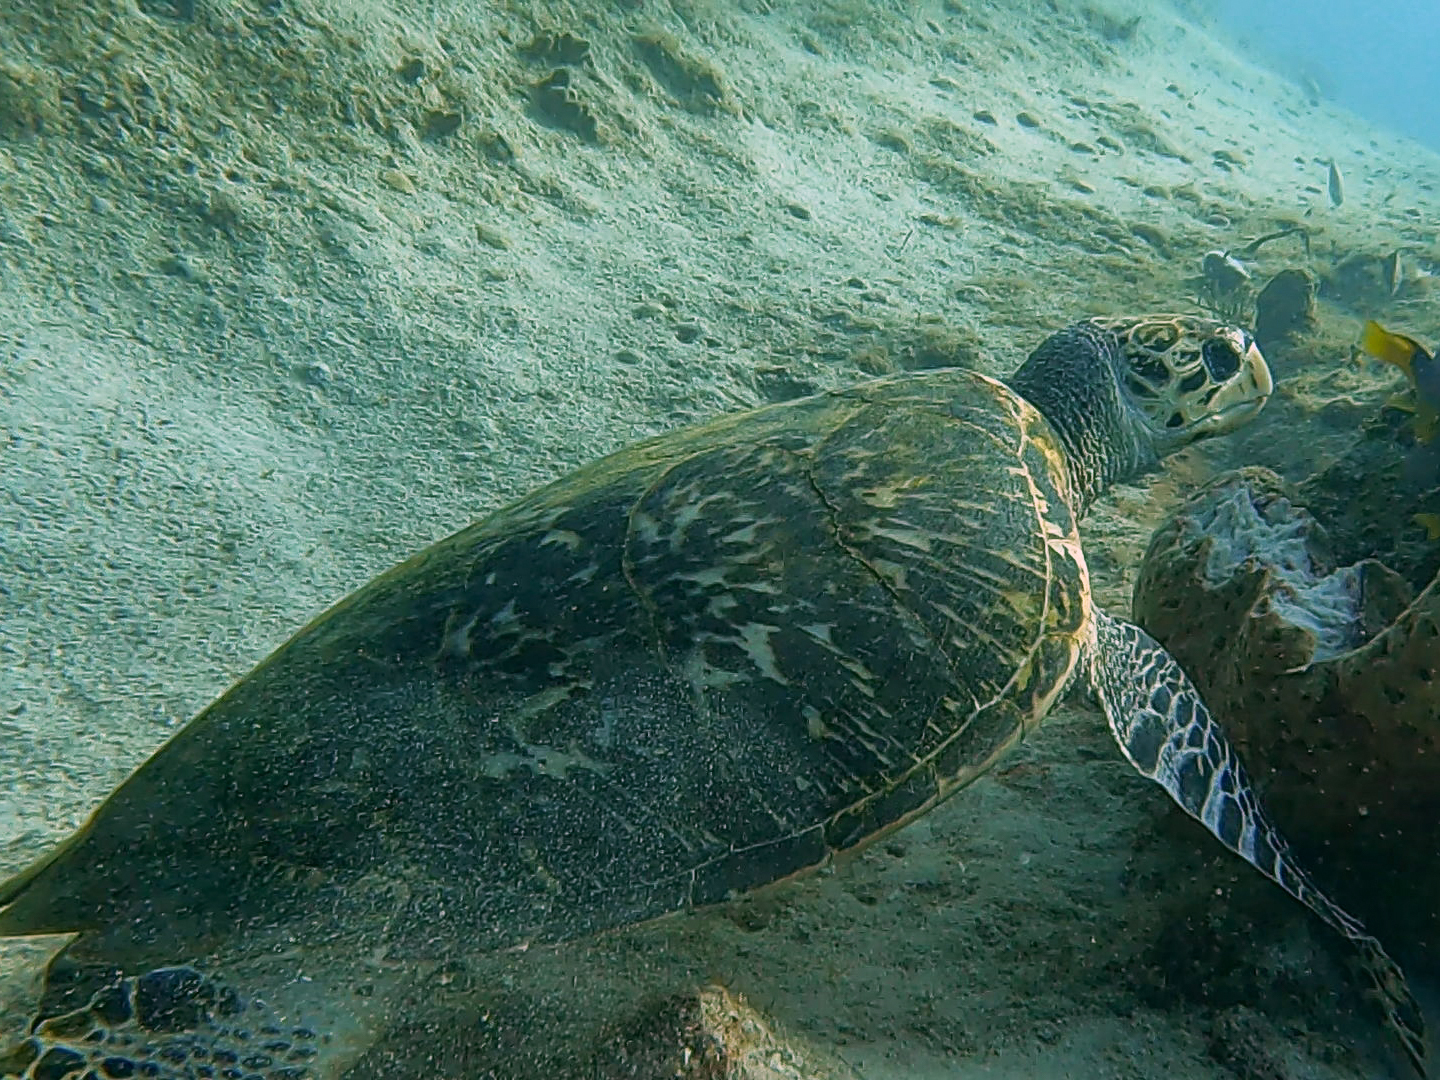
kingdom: Animalia
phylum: Chordata
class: Testudines
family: Cheloniidae
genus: Eretmochelys
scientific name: Eretmochelys imbricata
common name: Hawksbill turtle
